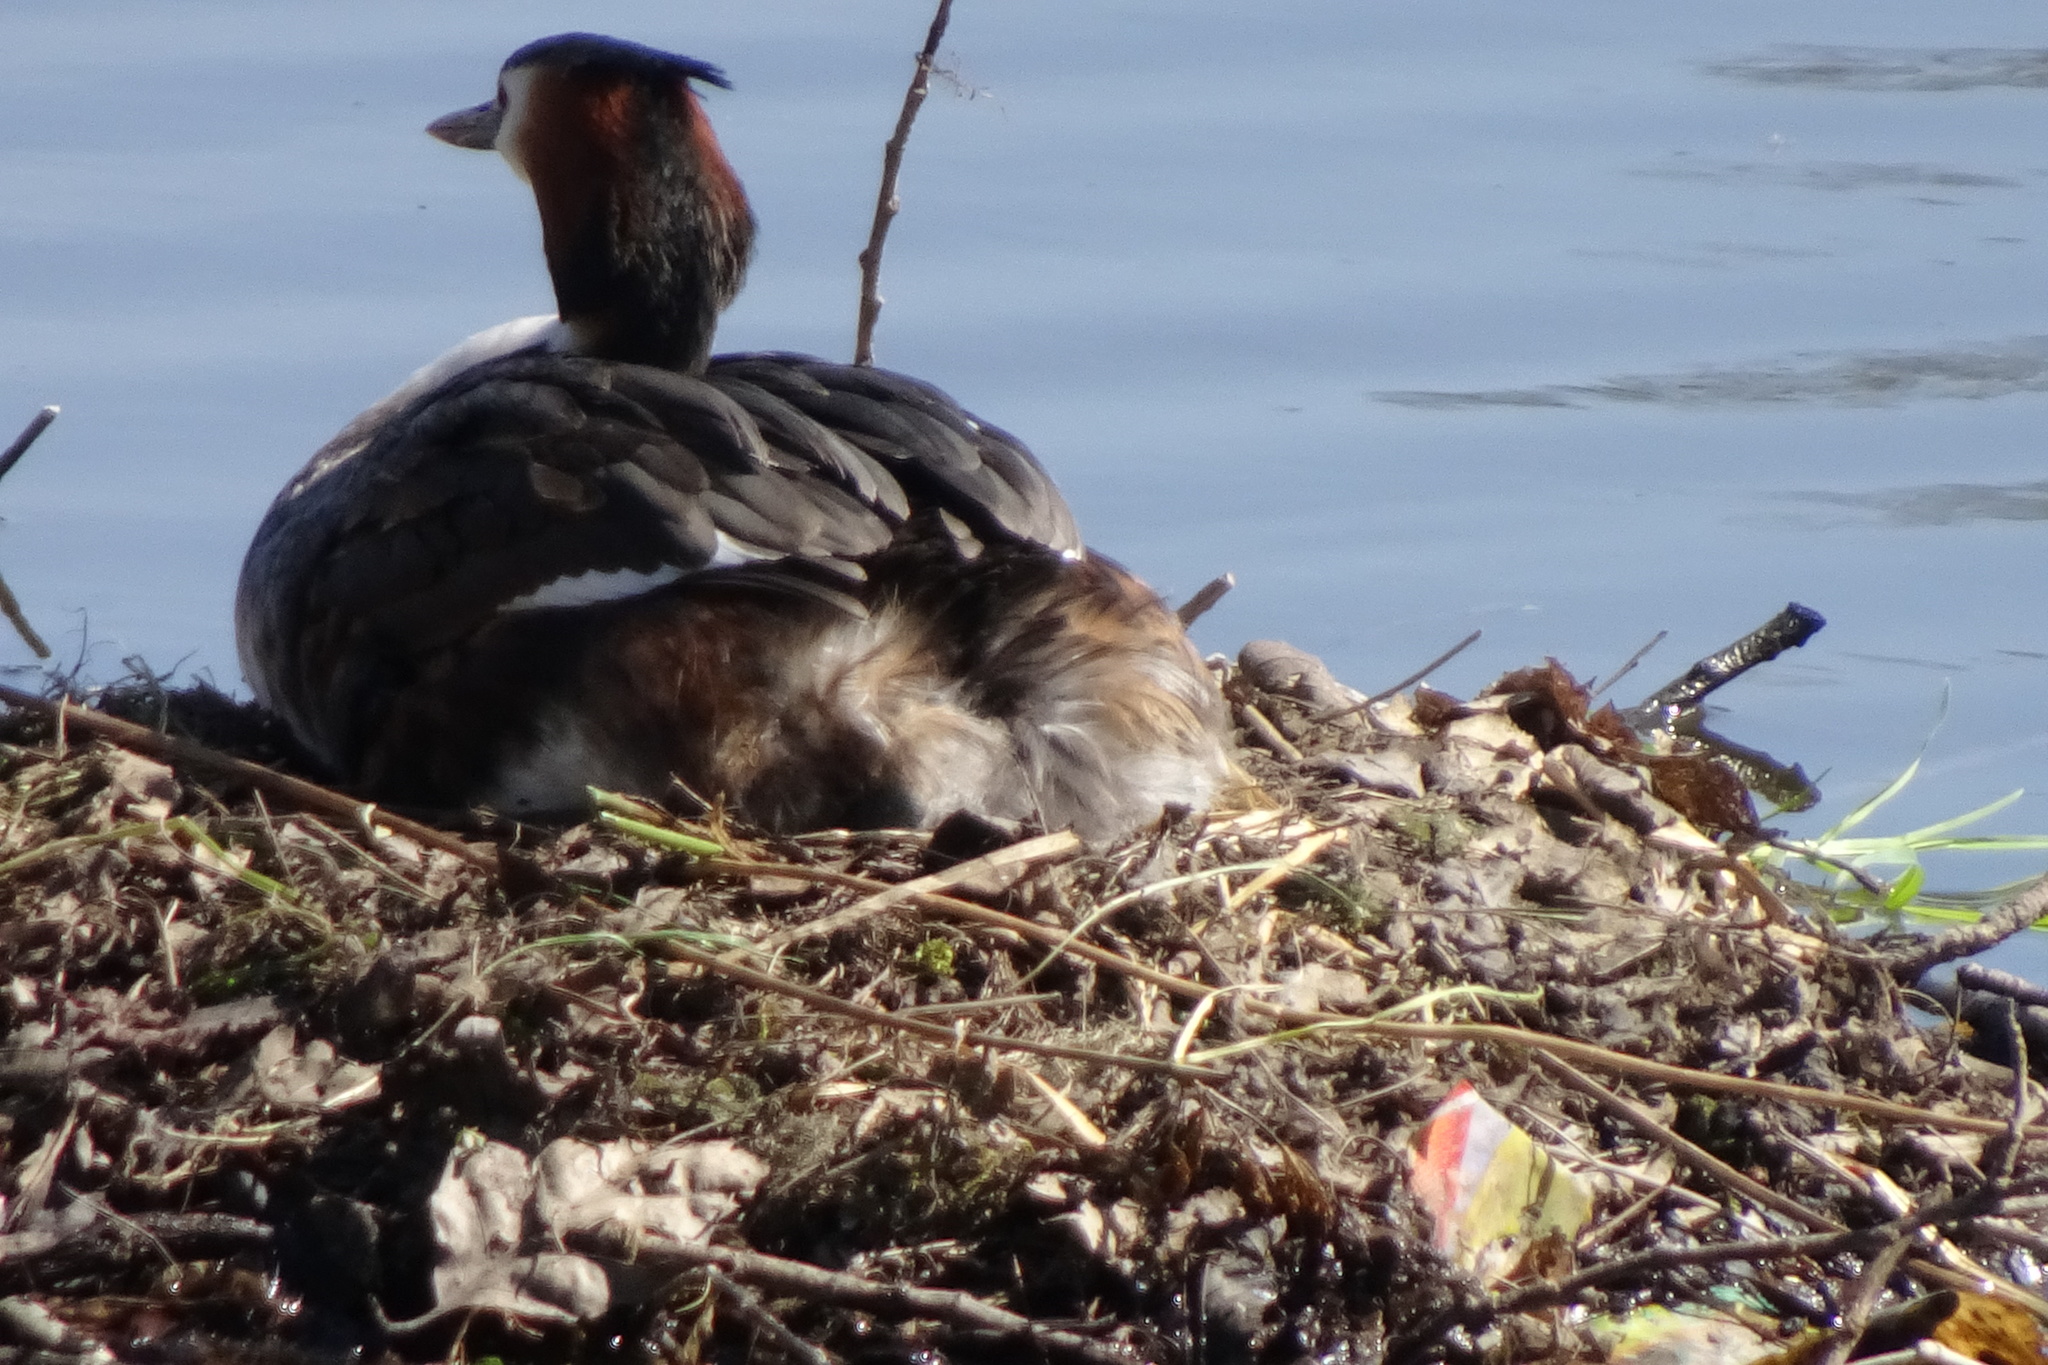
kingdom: Animalia
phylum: Chordata
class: Aves
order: Podicipediformes
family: Podicipedidae
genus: Podiceps
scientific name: Podiceps cristatus
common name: Great crested grebe
